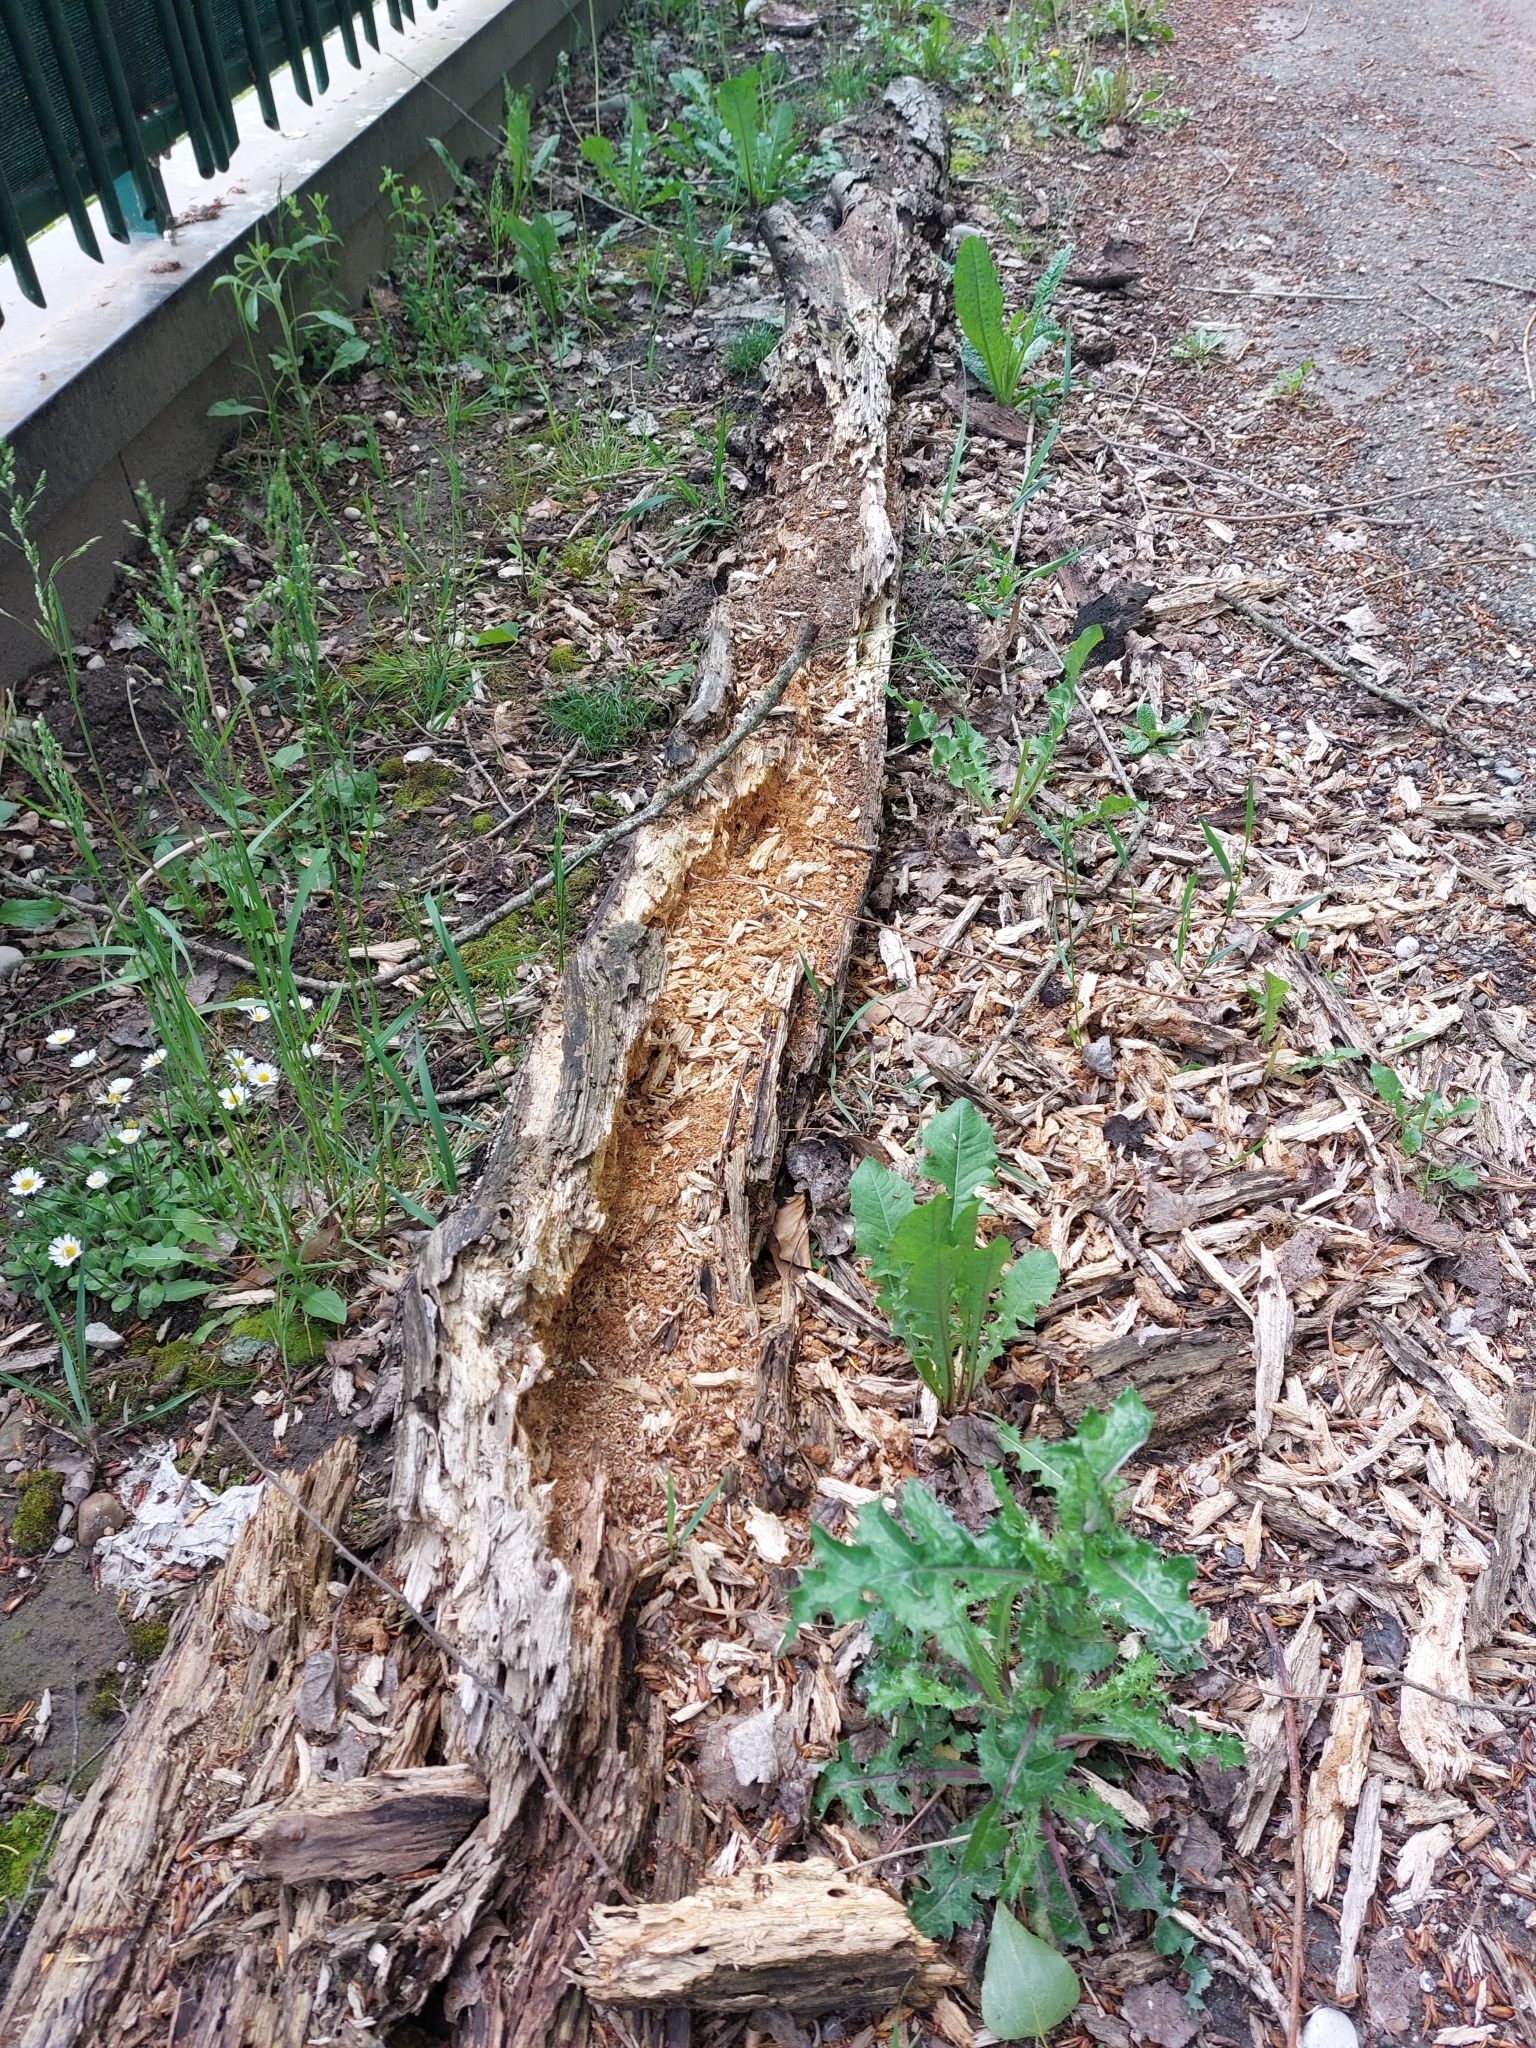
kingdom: Animalia
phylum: Chordata
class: Aves
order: Piciformes
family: Picidae
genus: Dryocopus
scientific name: Dryocopus martius
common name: Black woodpecker
